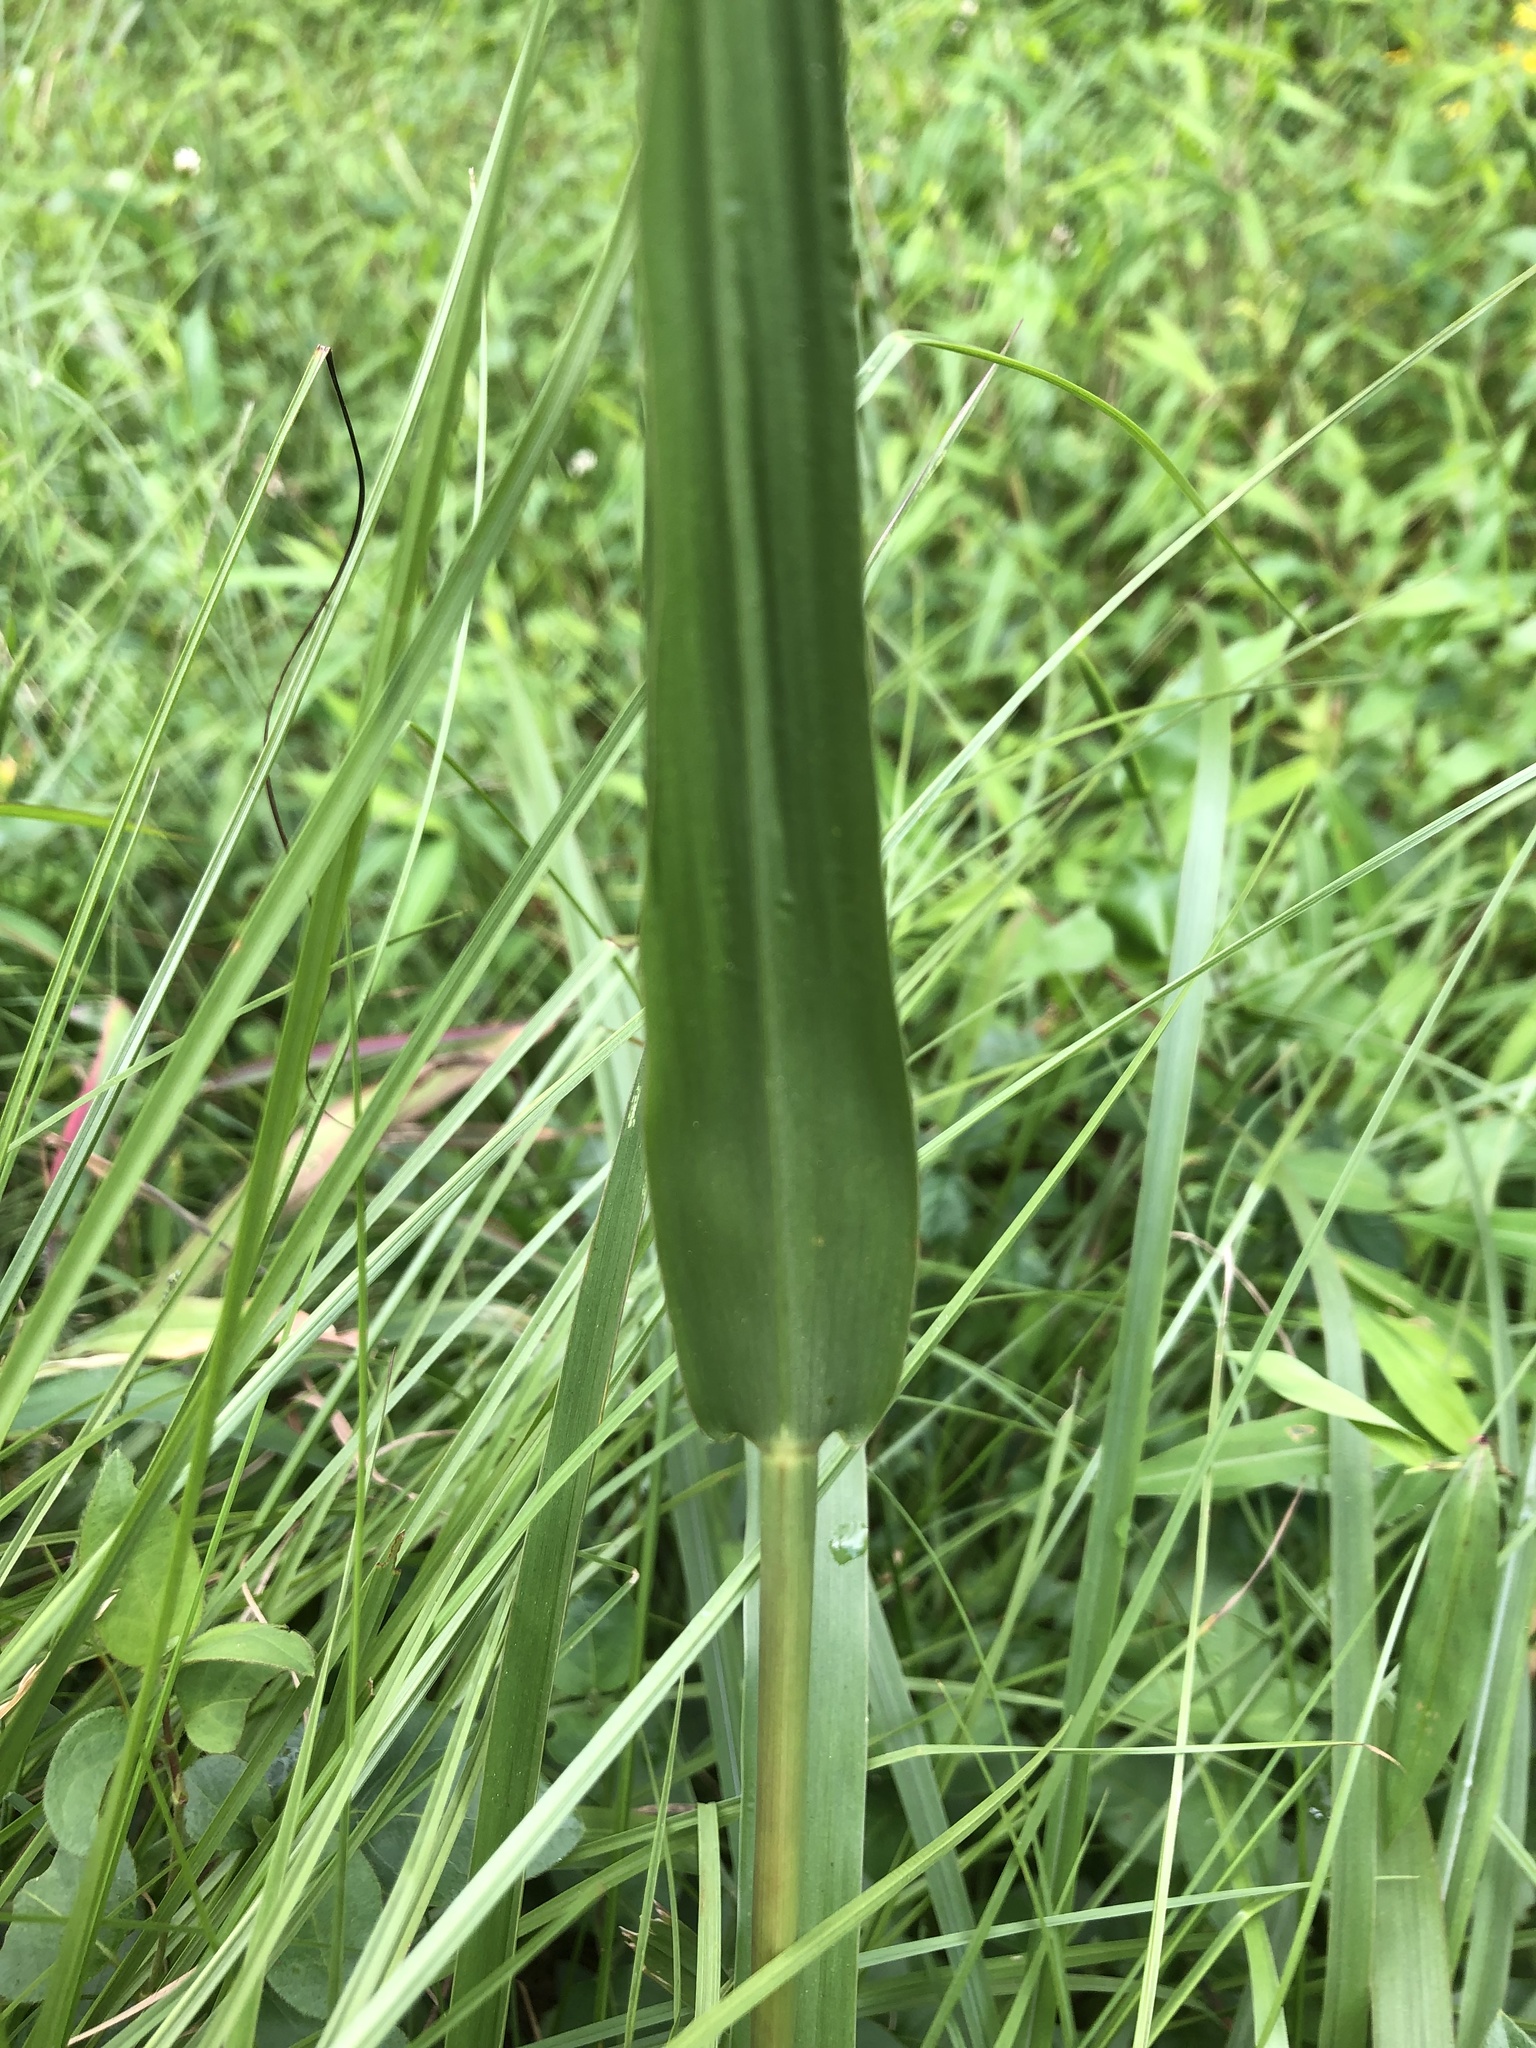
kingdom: Plantae
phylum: Tracheophyta
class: Liliopsida
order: Poales
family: Poaceae
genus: Tripsacum
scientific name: Tripsacum dactyloides
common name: Buffalo-grass
